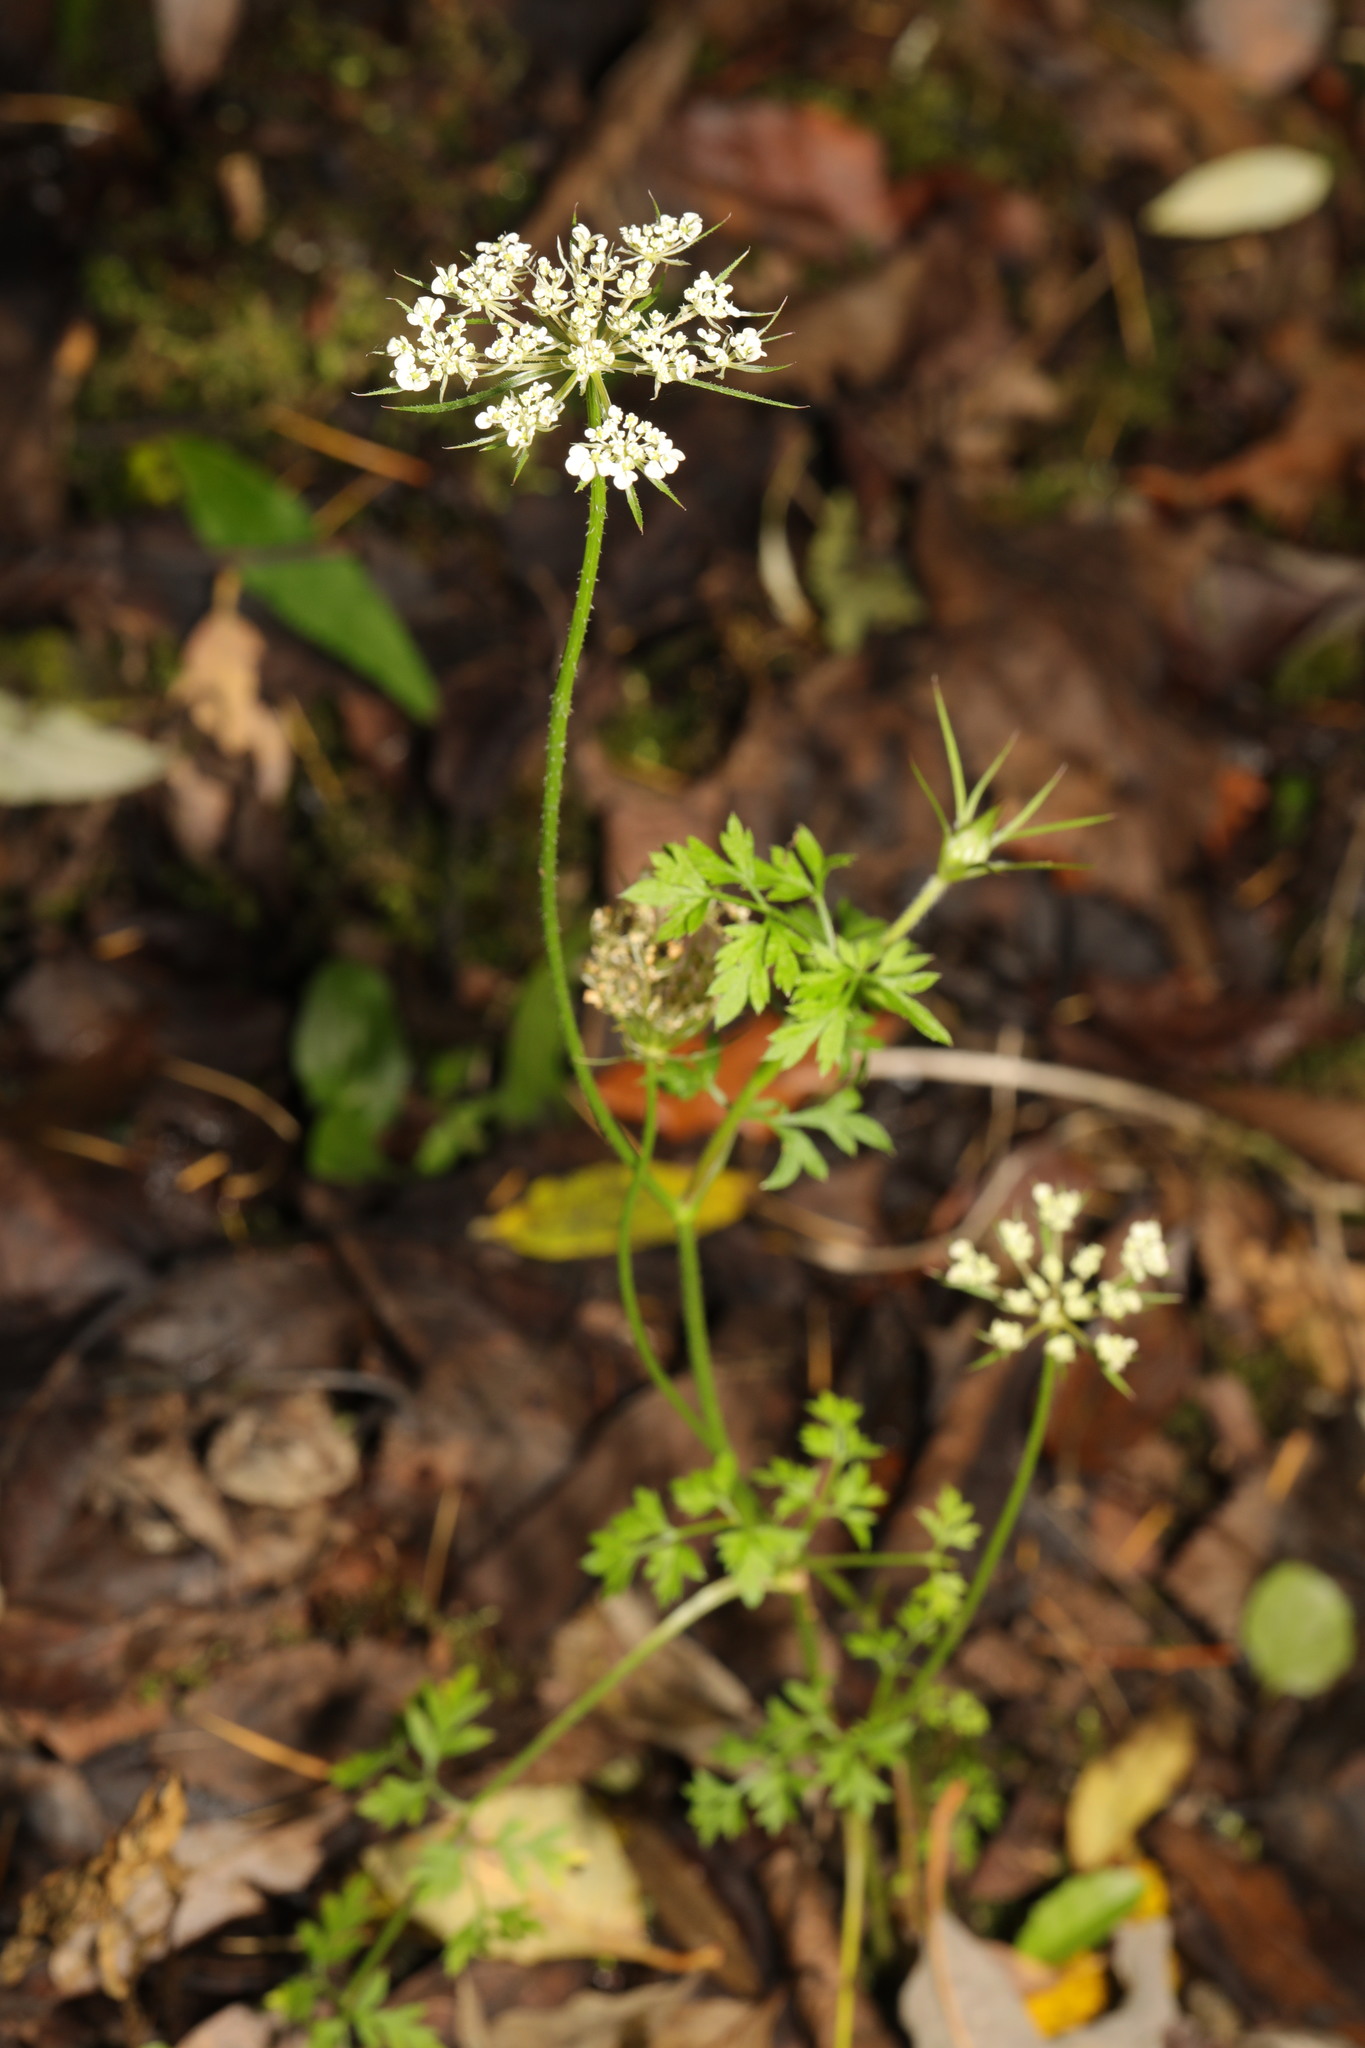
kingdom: Plantae
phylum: Tracheophyta
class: Magnoliopsida
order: Apiales
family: Apiaceae
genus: Daucus
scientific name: Daucus carota
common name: Wild carrot
